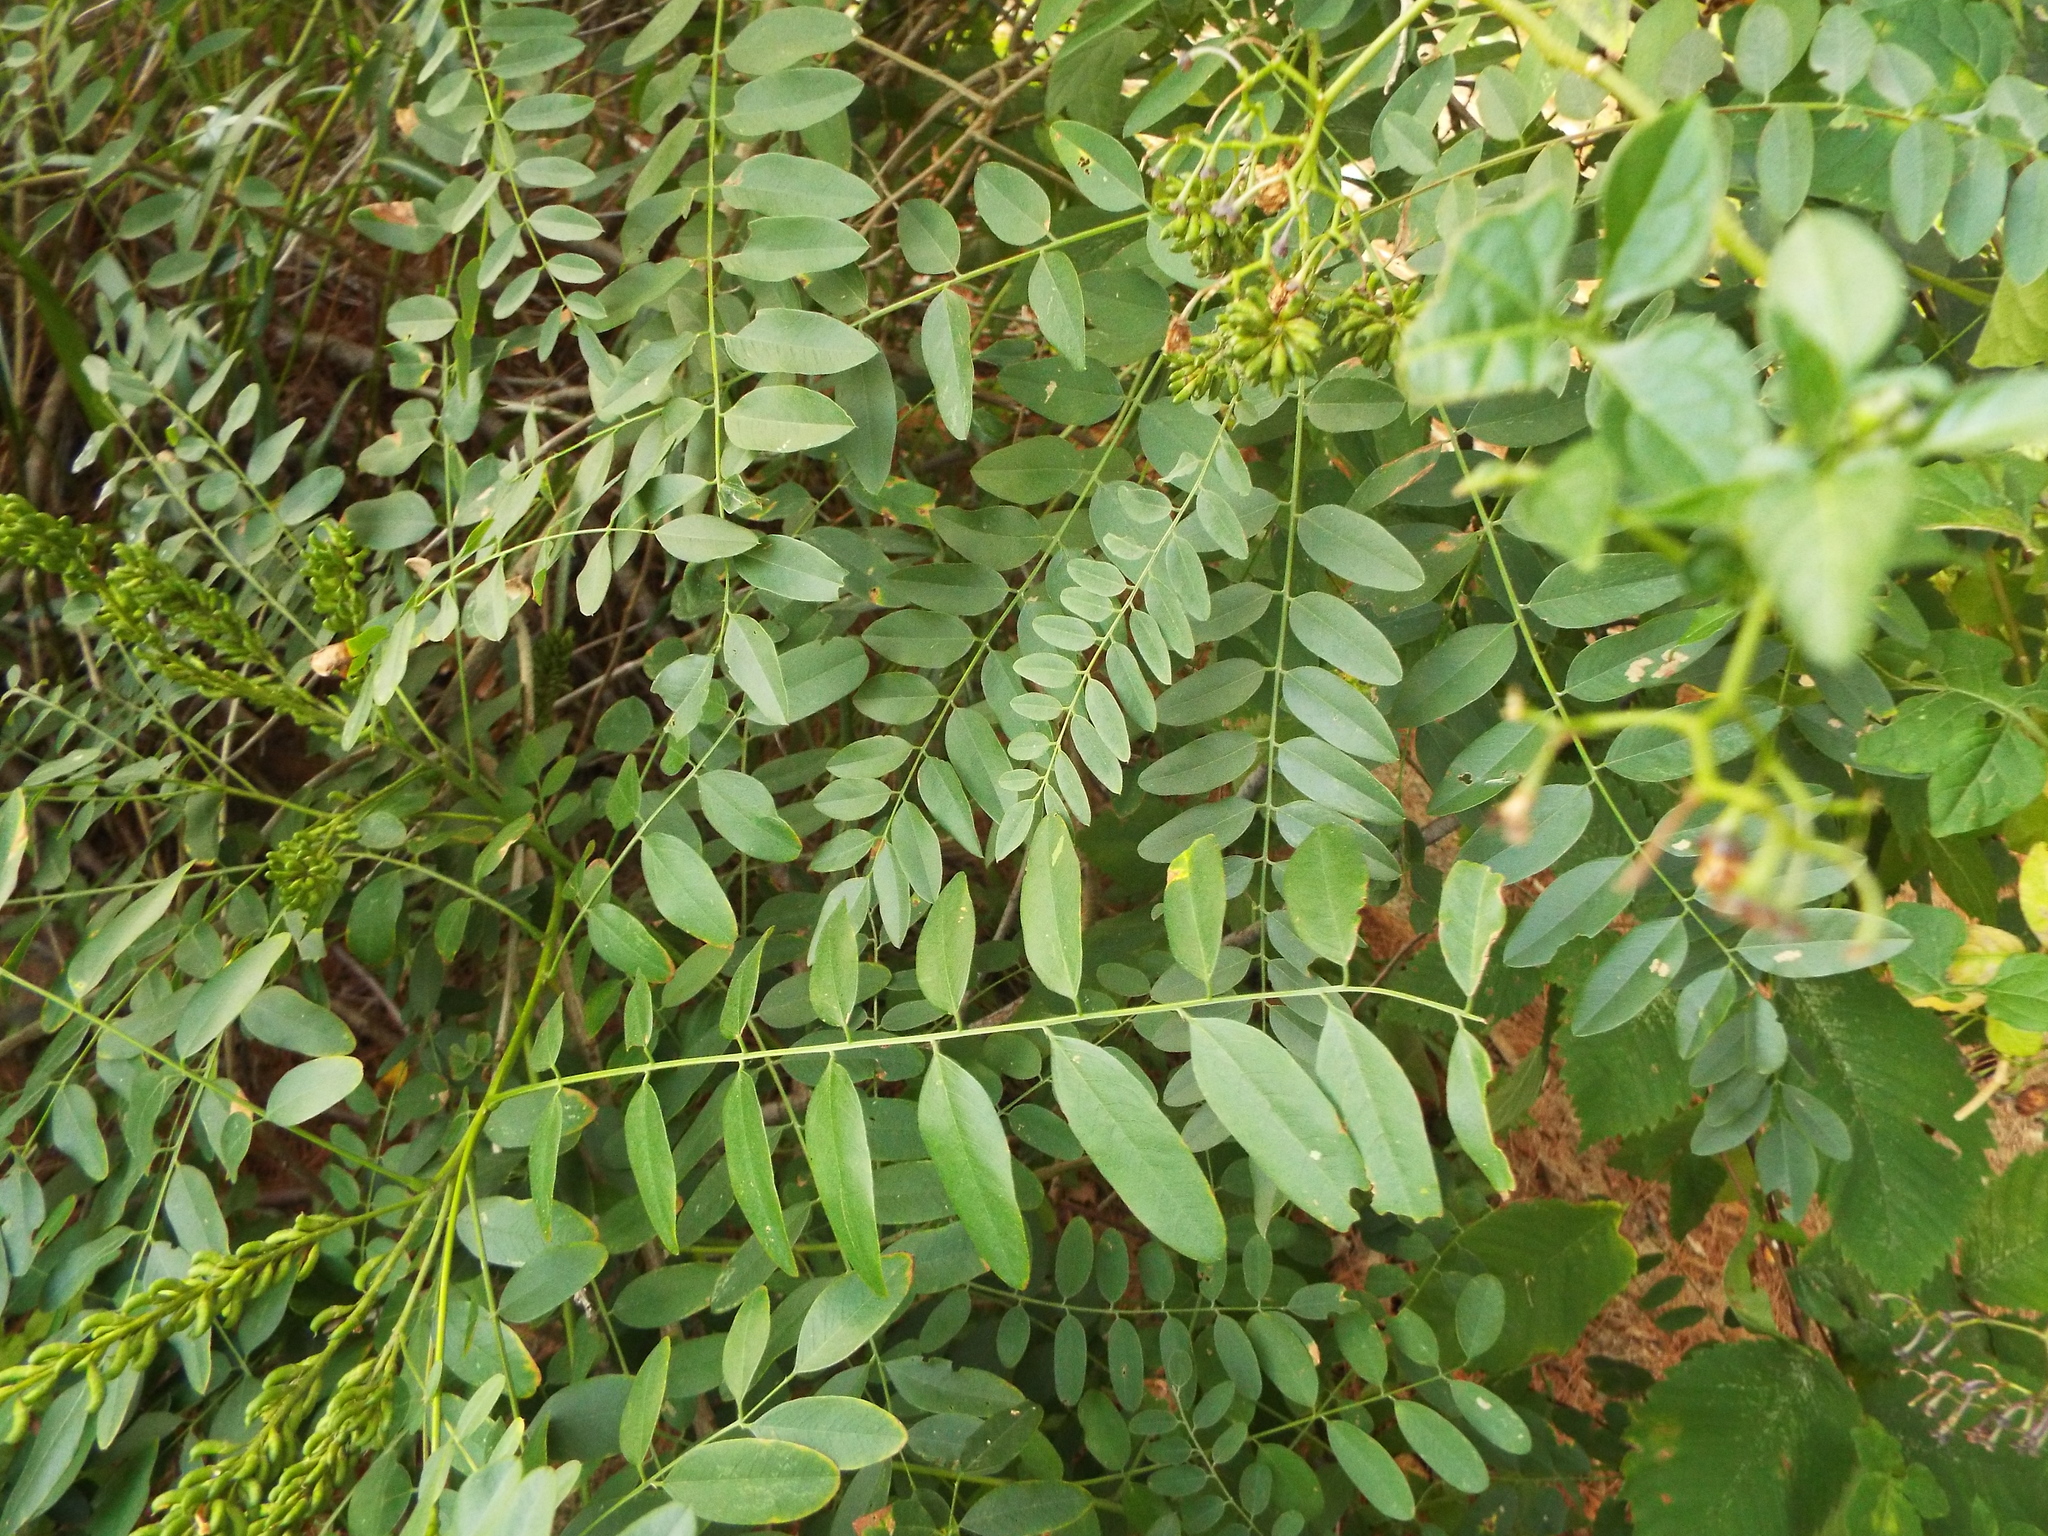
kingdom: Plantae
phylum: Tracheophyta
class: Magnoliopsida
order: Fabales
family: Fabaceae
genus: Amorpha
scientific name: Amorpha fruticosa
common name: False indigo
